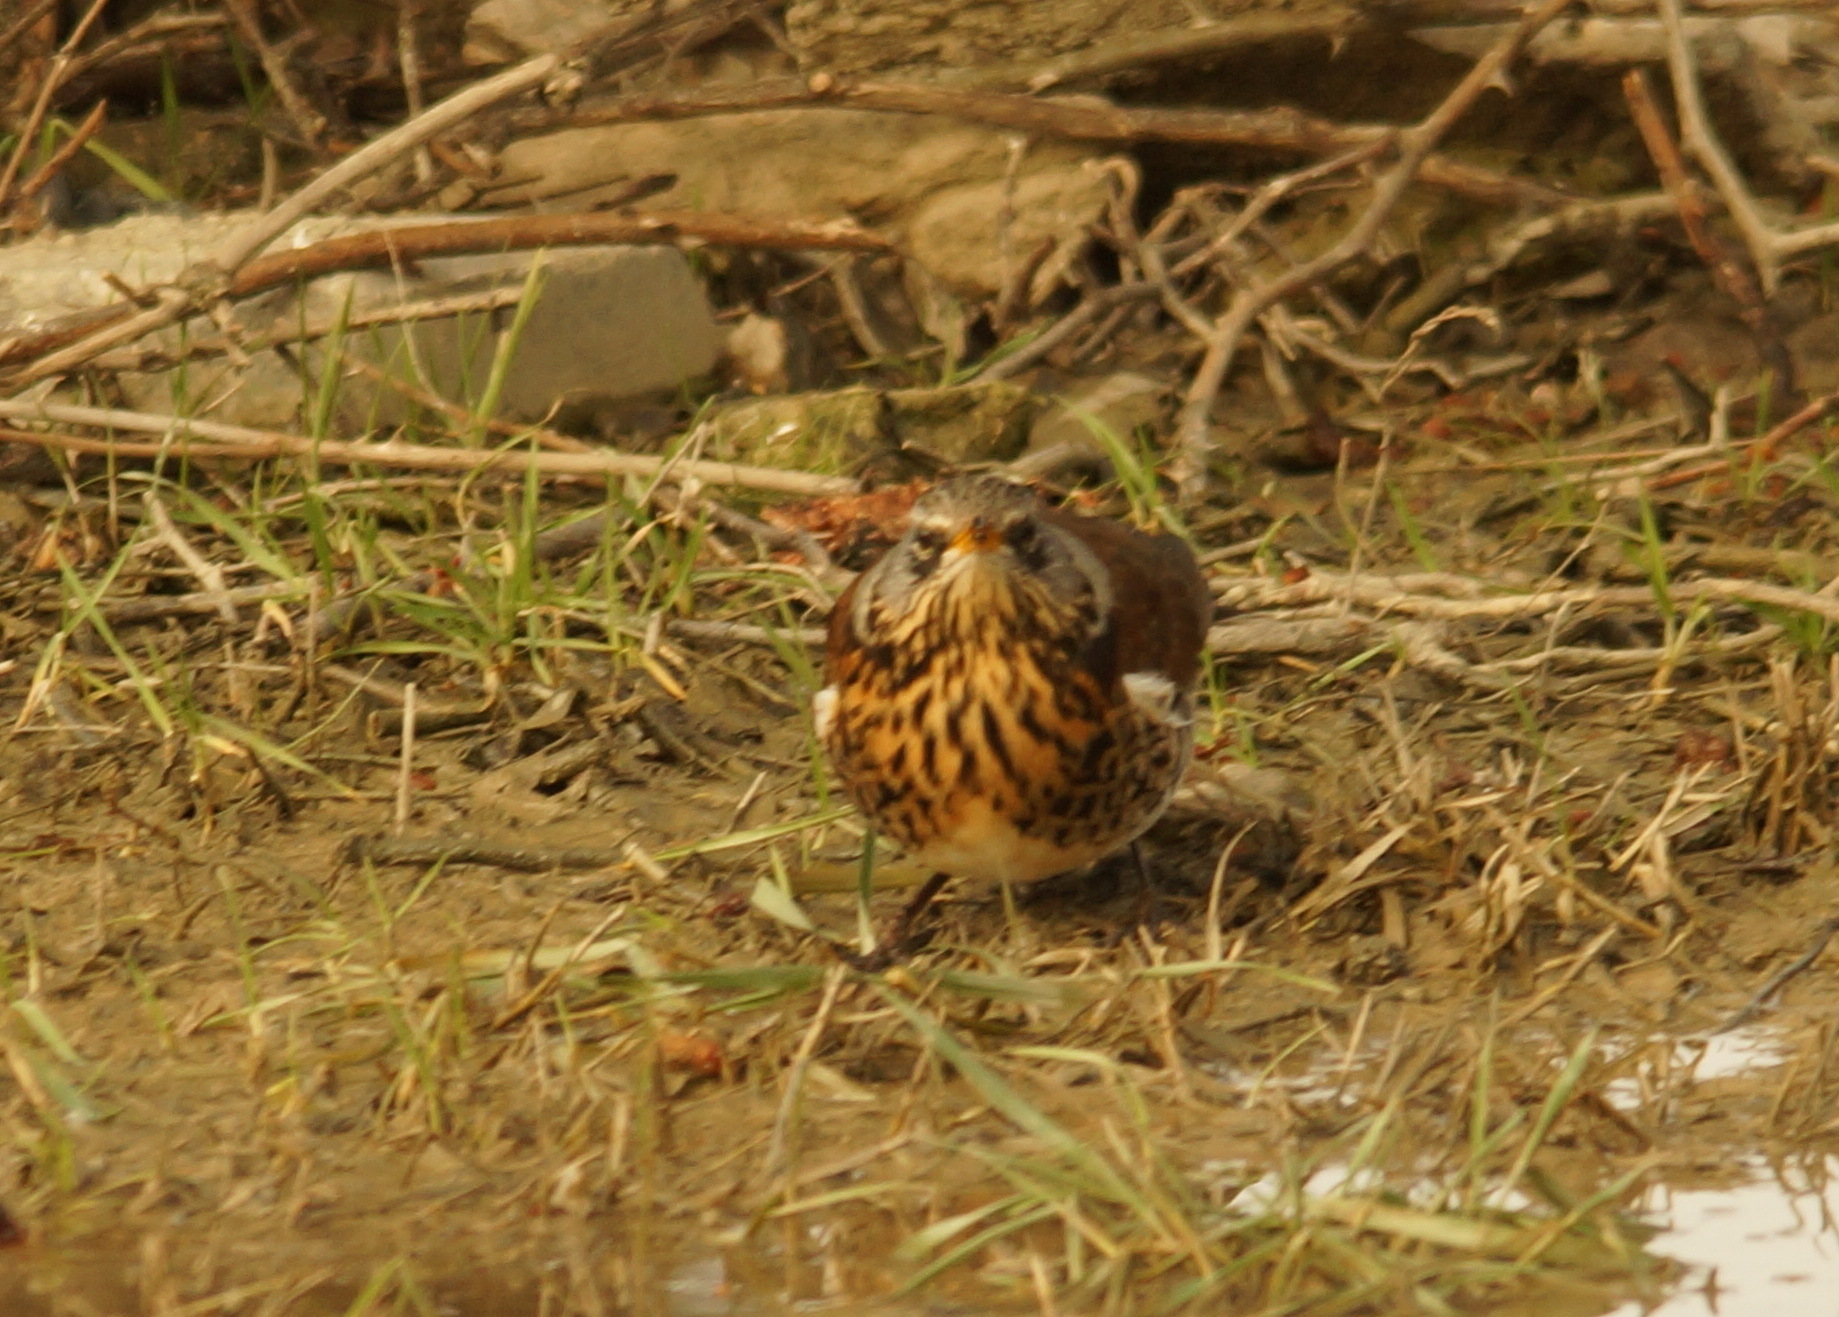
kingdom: Animalia
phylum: Chordata
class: Aves
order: Passeriformes
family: Turdidae
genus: Turdus
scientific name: Turdus pilaris
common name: Fieldfare
